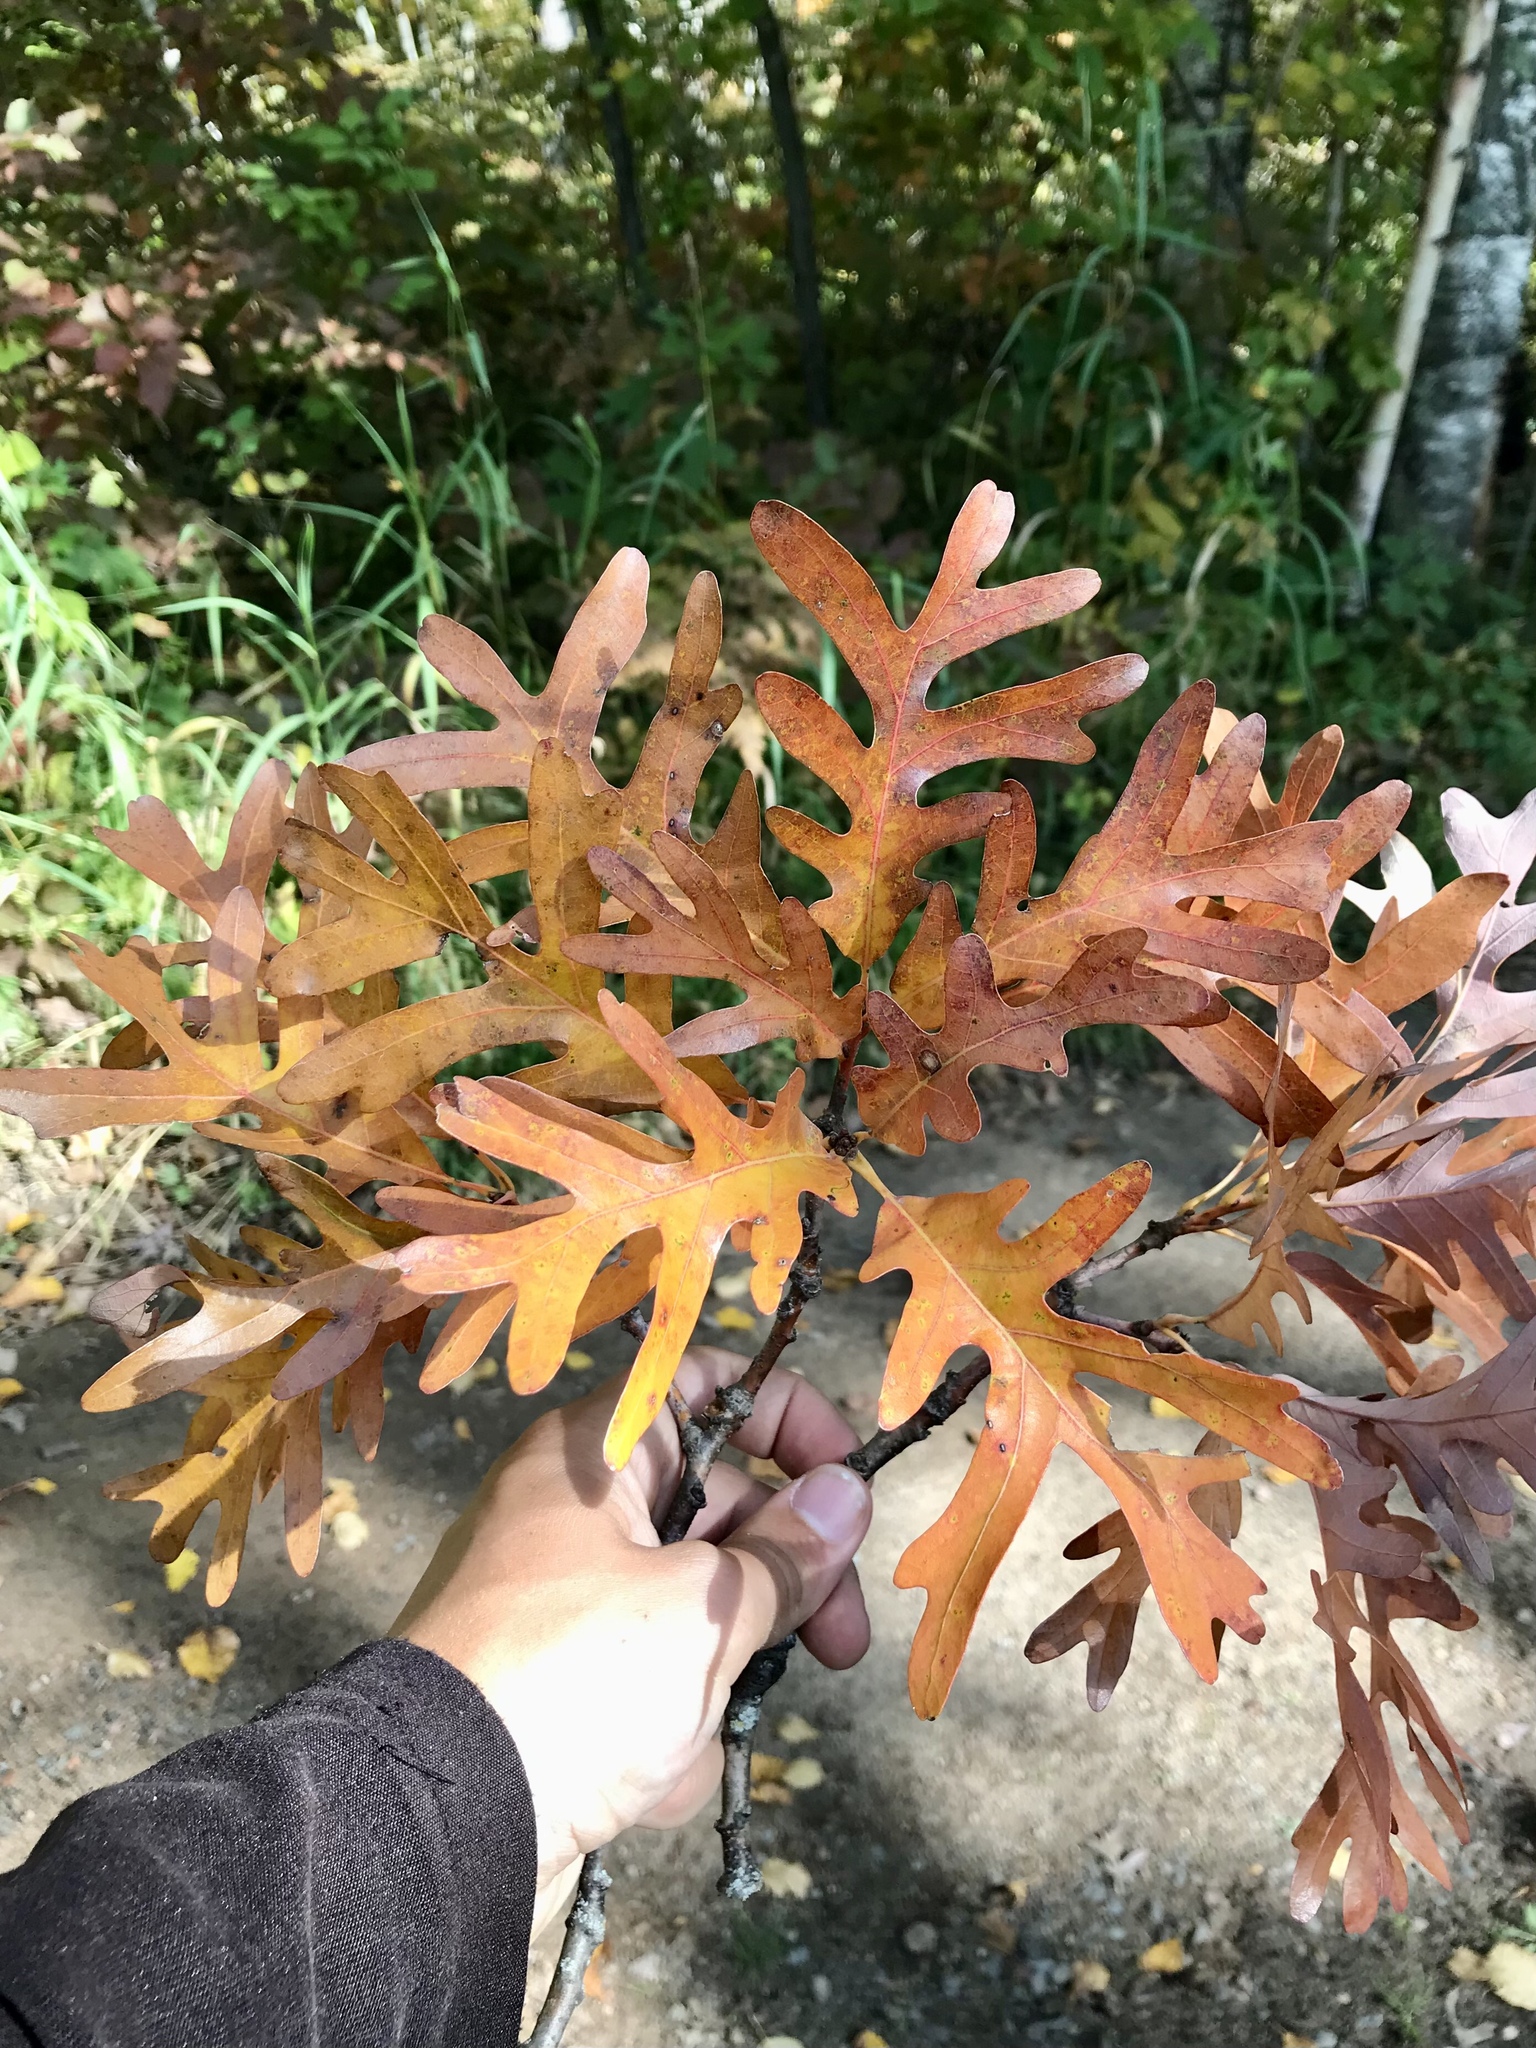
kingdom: Plantae
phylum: Tracheophyta
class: Magnoliopsida
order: Fagales
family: Fagaceae
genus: Quercus
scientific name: Quercus alba
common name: White oak
